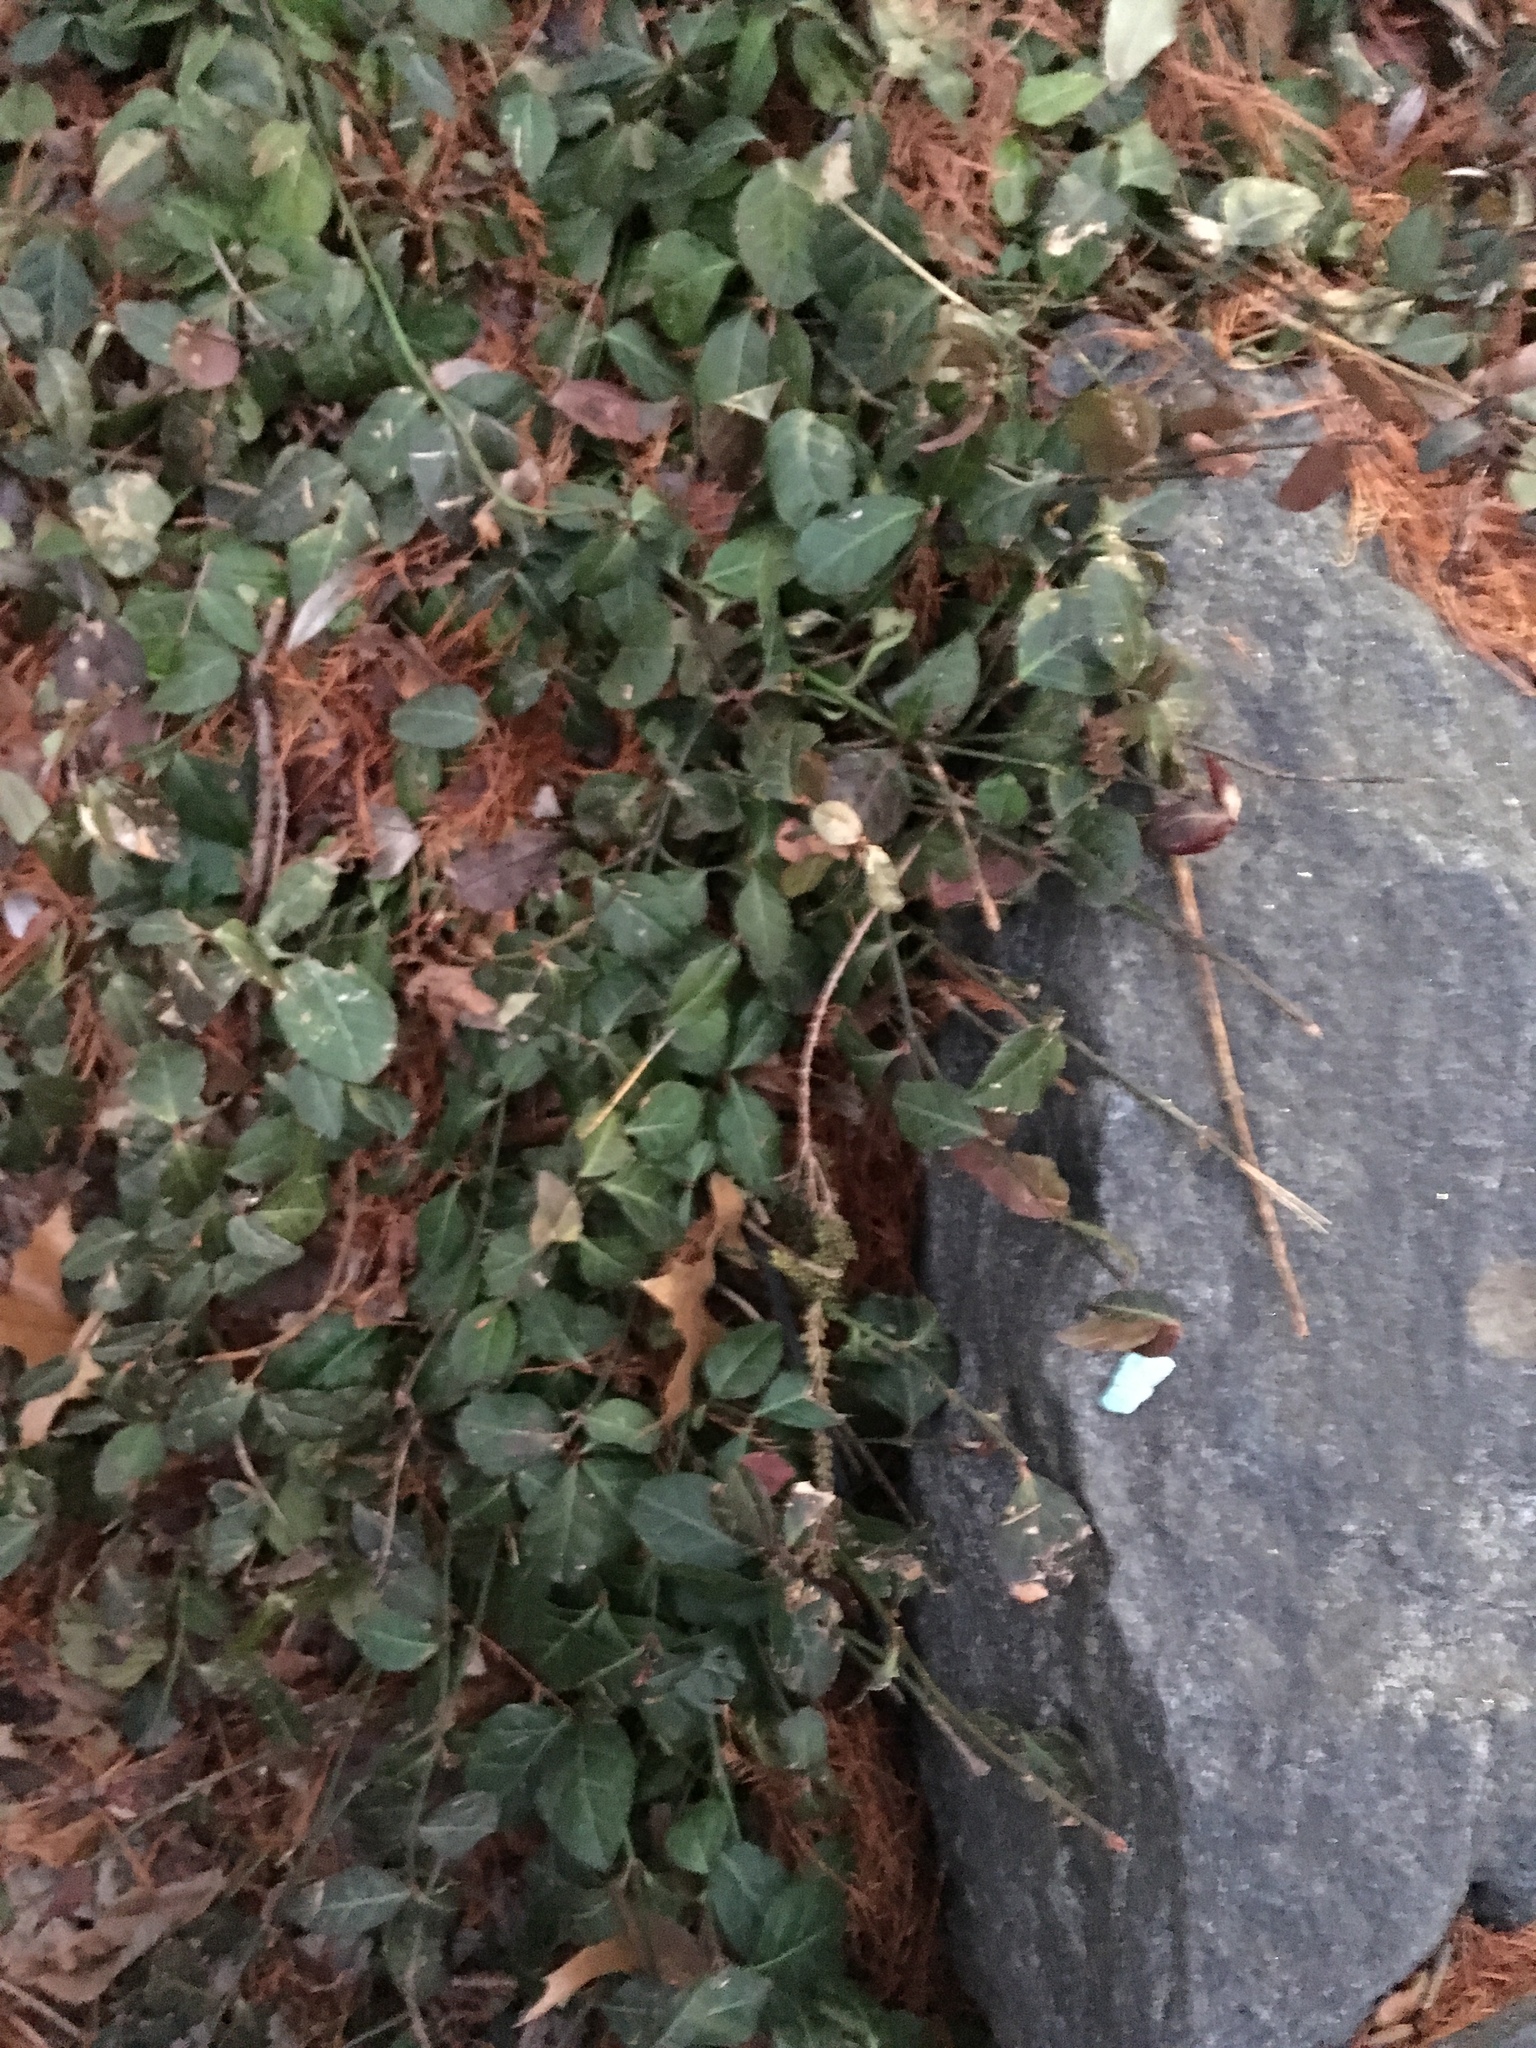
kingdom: Plantae
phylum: Tracheophyta
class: Magnoliopsida
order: Celastrales
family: Celastraceae
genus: Euonymus
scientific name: Euonymus fortunei
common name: Climbing euonymus
